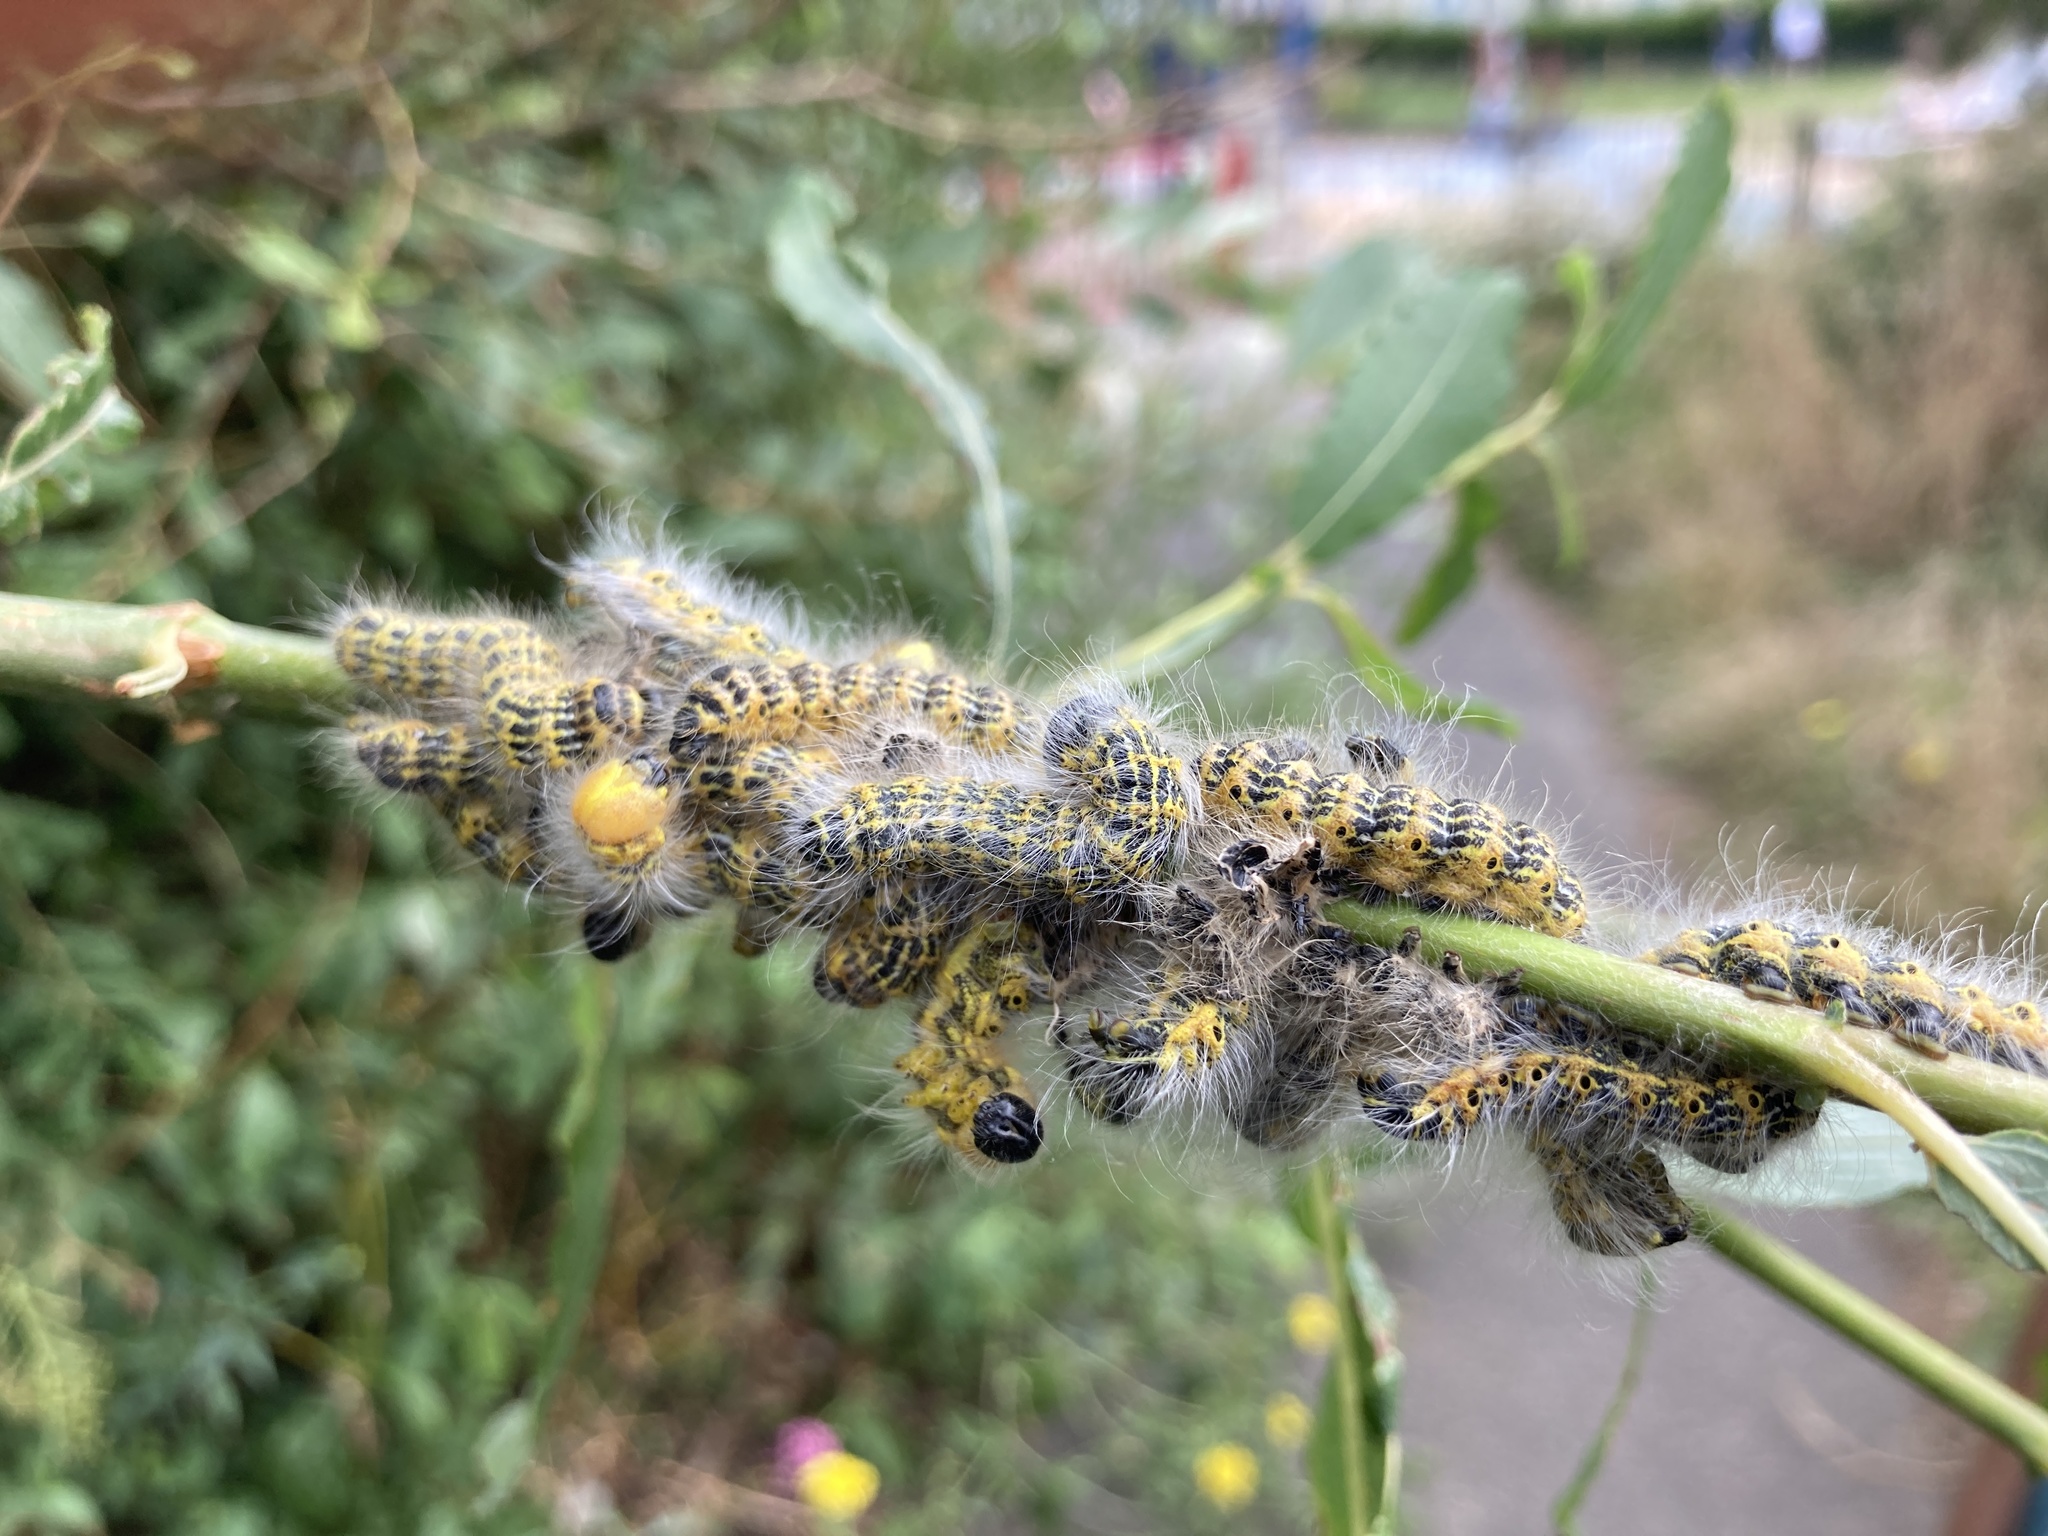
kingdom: Animalia
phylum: Arthropoda
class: Insecta
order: Lepidoptera
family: Notodontidae
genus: Phalera
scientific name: Phalera bucephala
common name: Buff-tip
